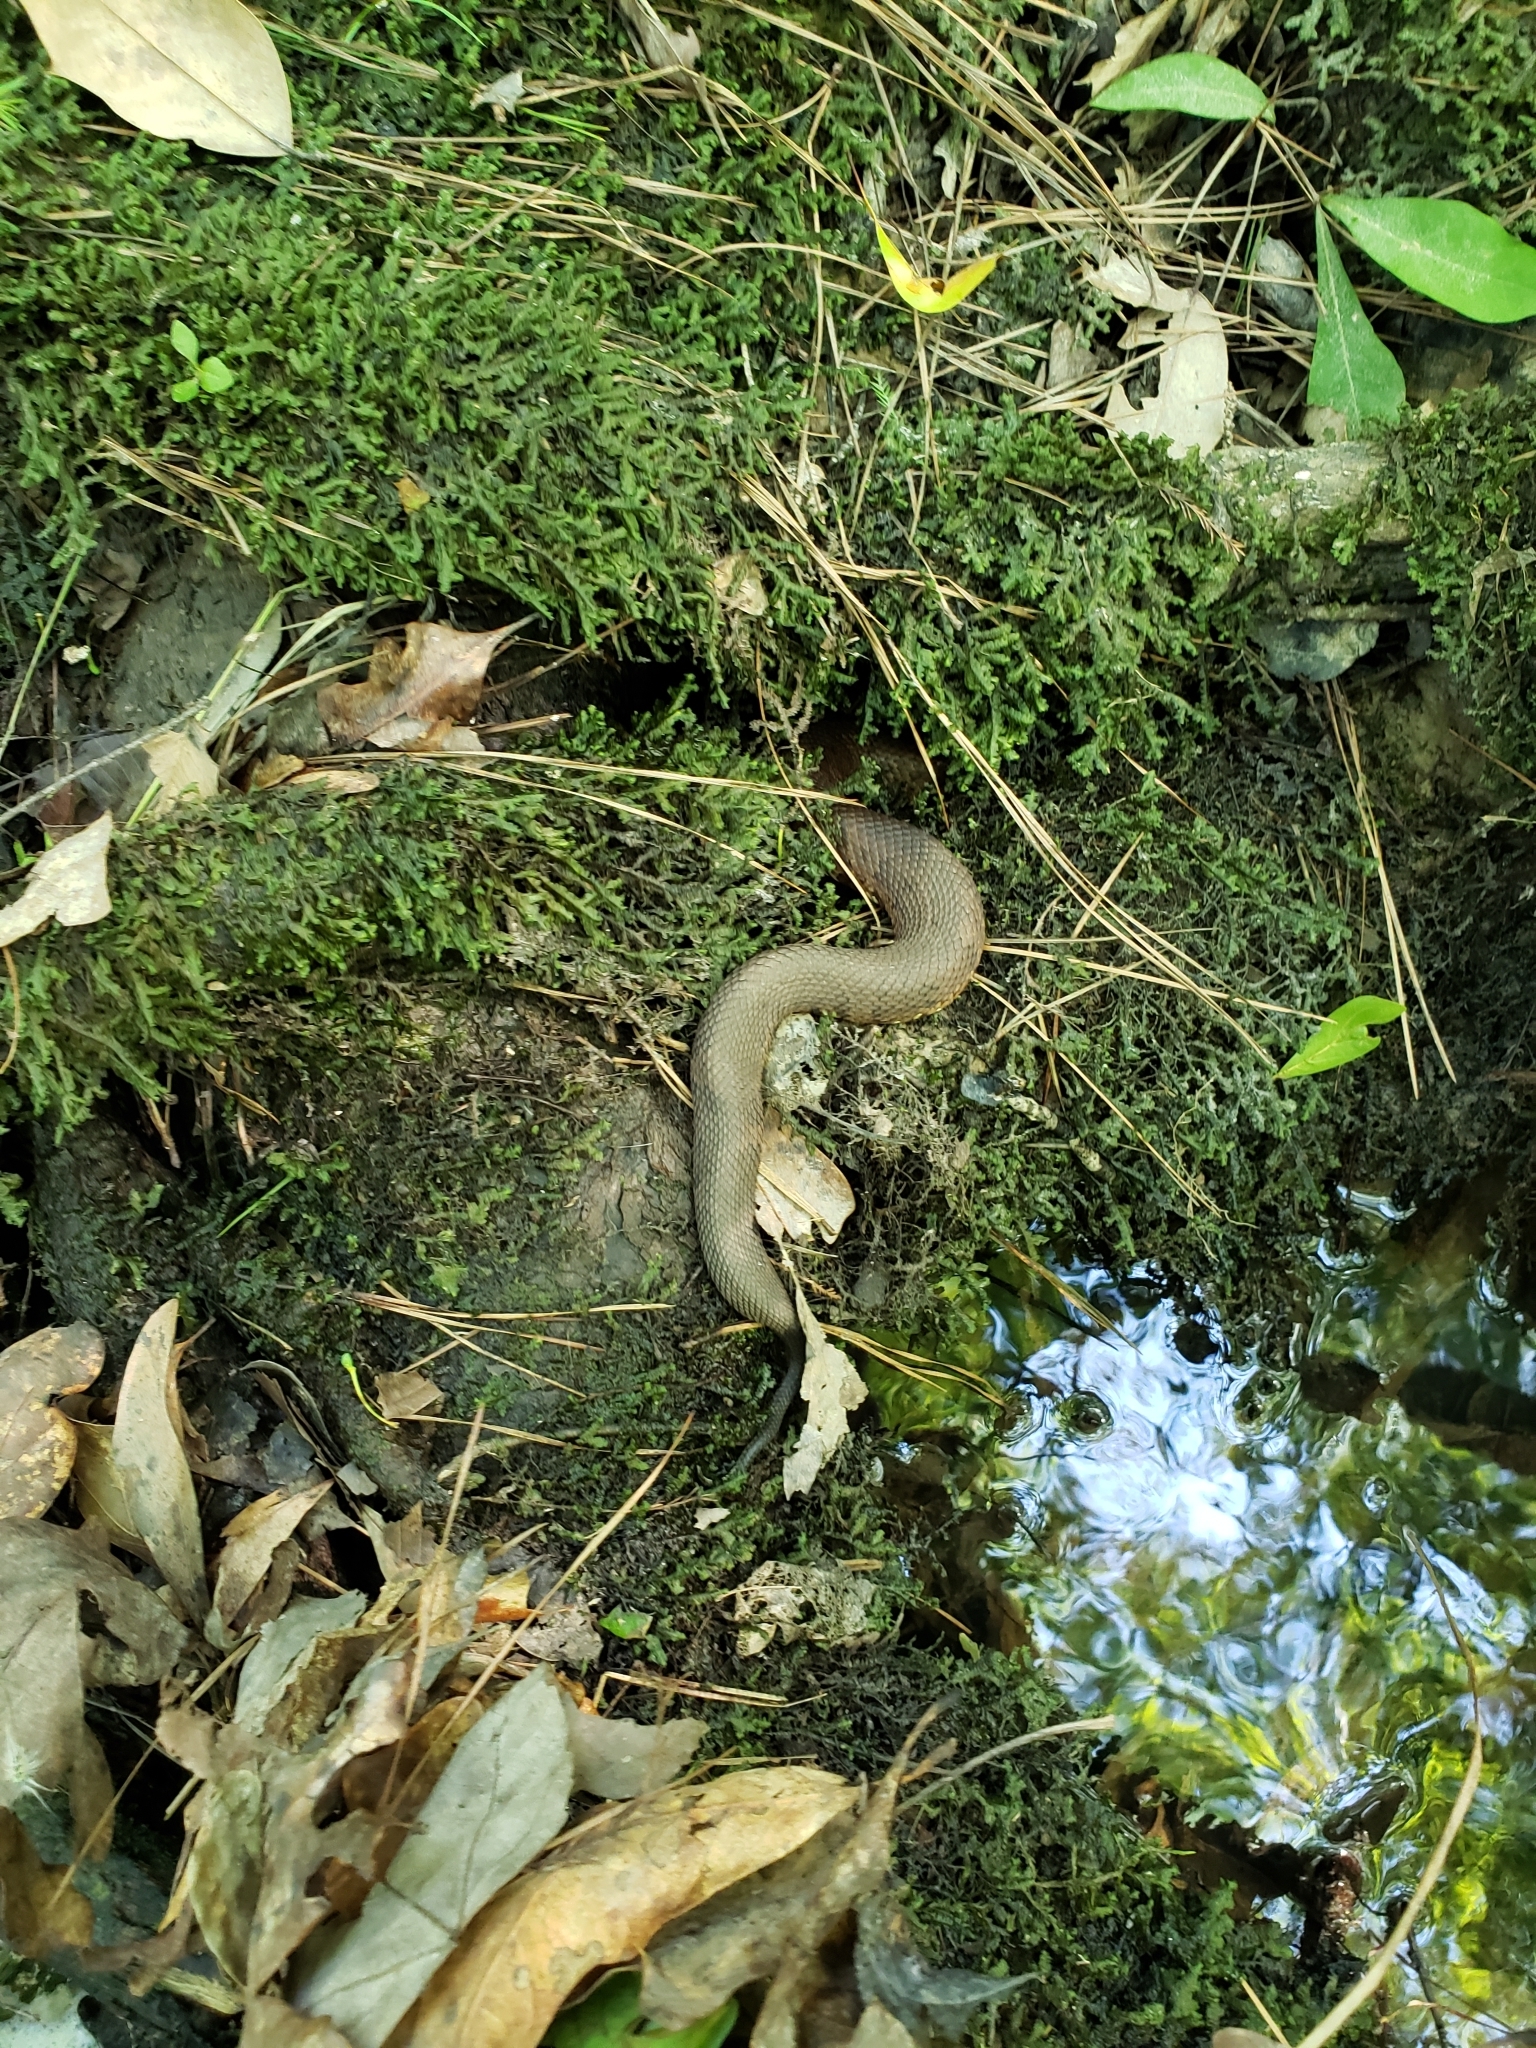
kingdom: Animalia
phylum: Chordata
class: Squamata
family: Viperidae
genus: Agkistrodon
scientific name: Agkistrodon piscivorus
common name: Cottonmouth
